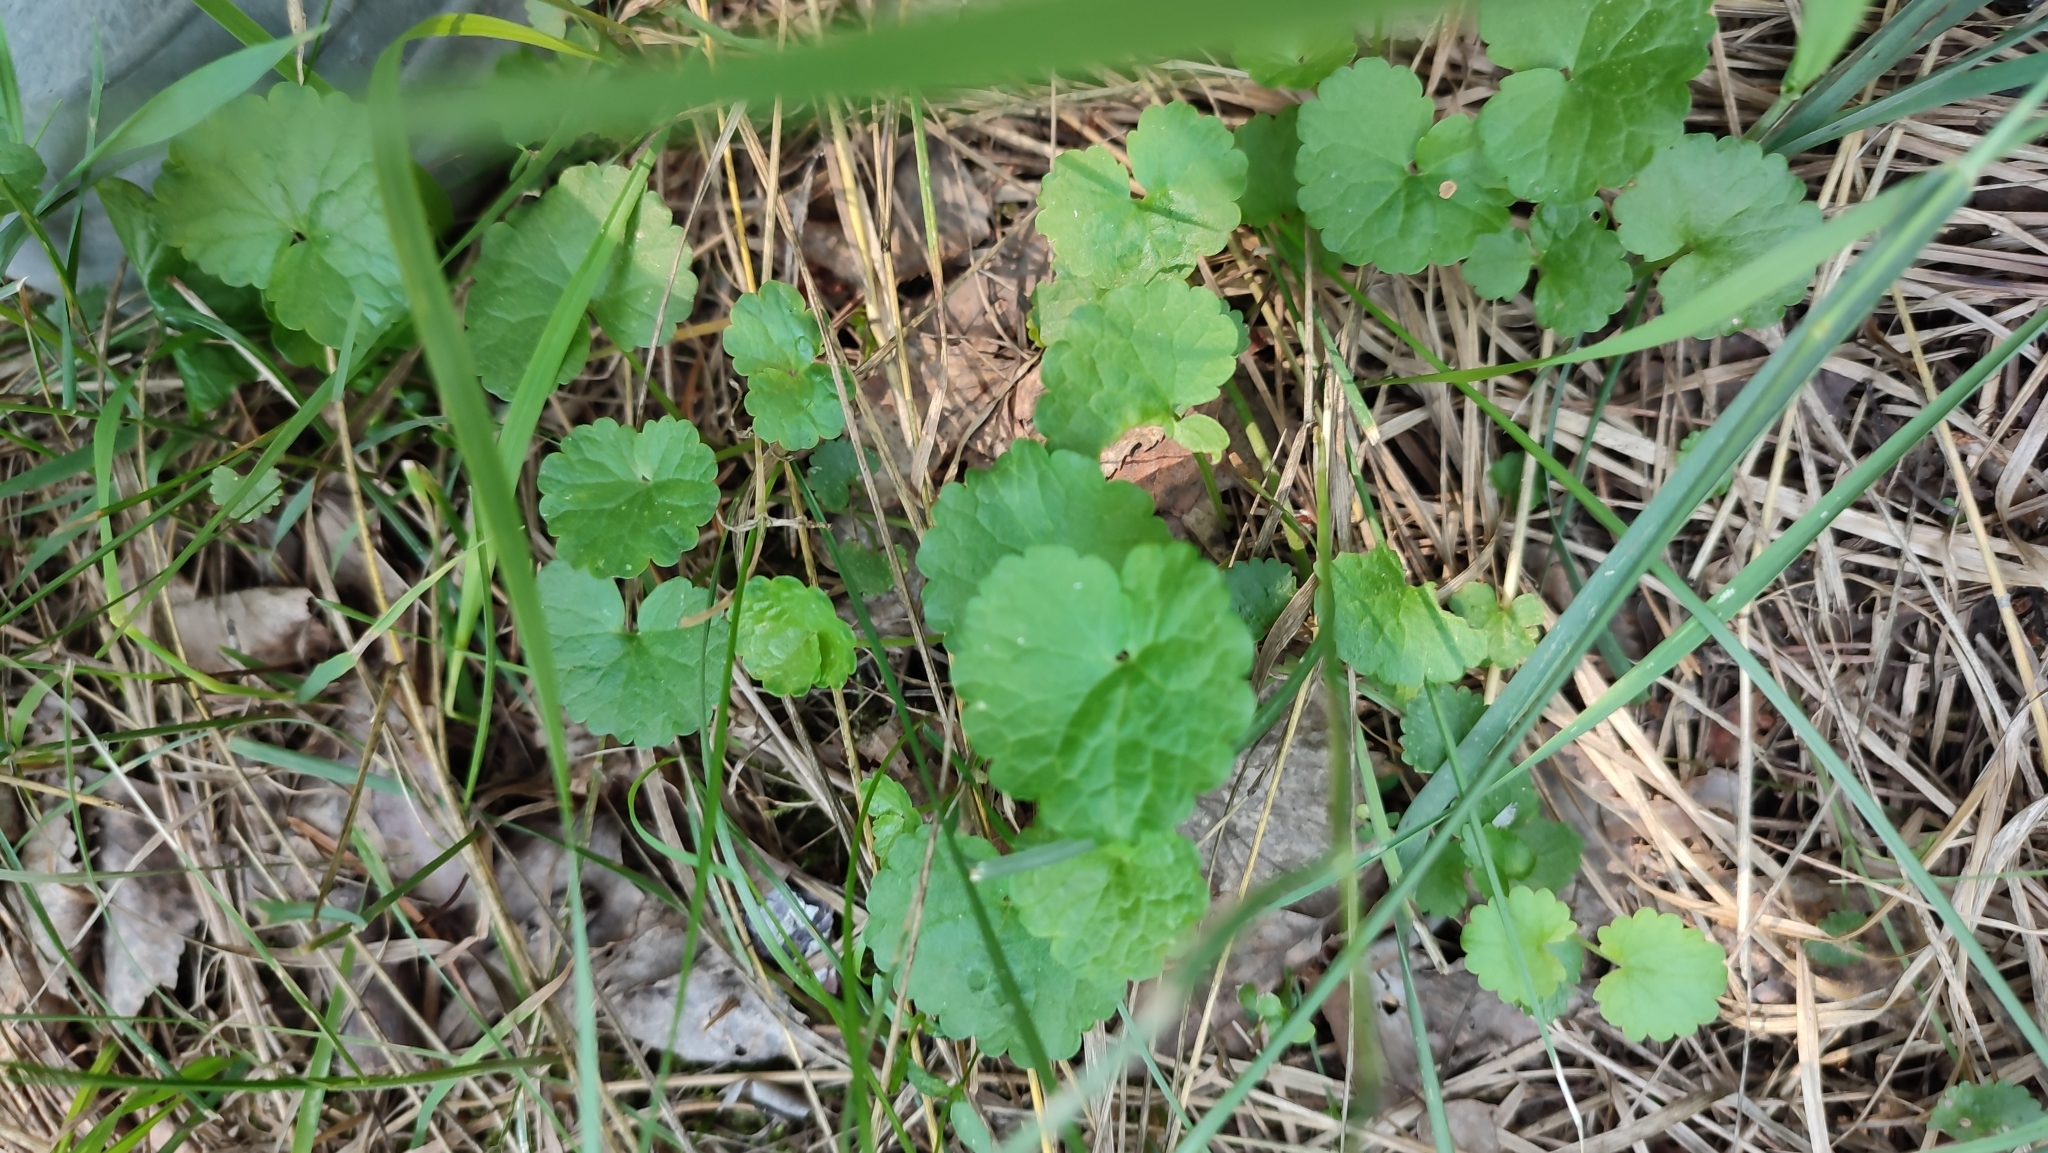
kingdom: Plantae
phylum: Tracheophyta
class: Magnoliopsida
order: Lamiales
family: Lamiaceae
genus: Glechoma
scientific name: Glechoma hederacea
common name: Ground ivy
